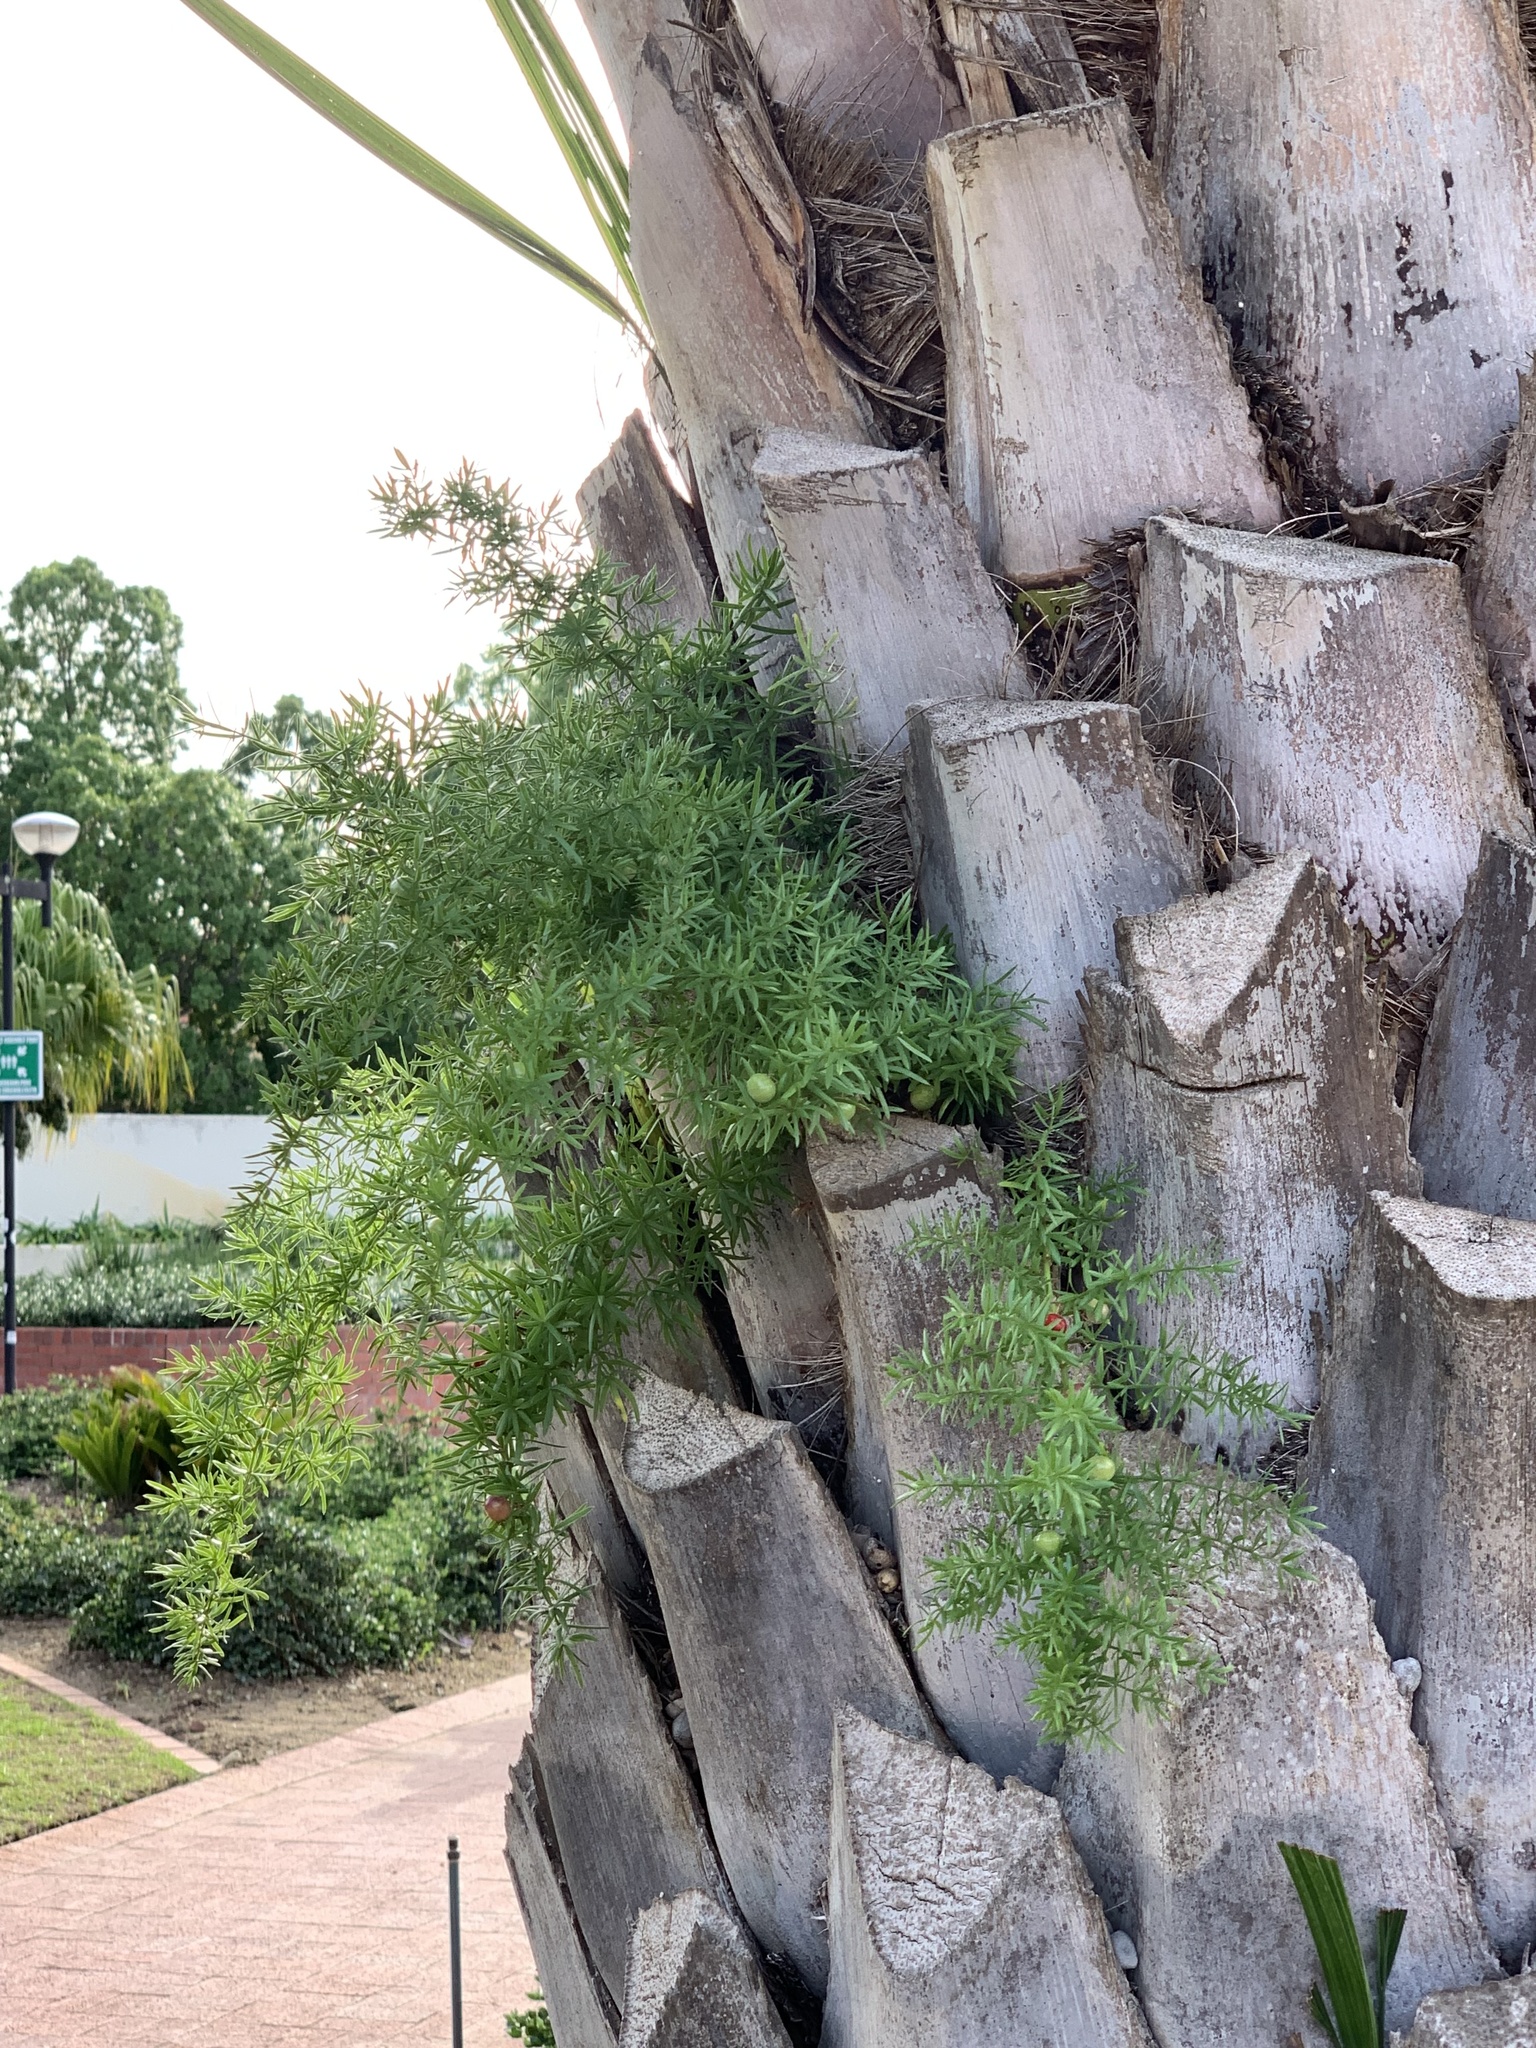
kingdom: Plantae
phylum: Tracheophyta
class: Liliopsida
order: Asparagales
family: Asparagaceae
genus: Asparagus
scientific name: Asparagus aethiopicus
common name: Sprenger's asparagus fern
